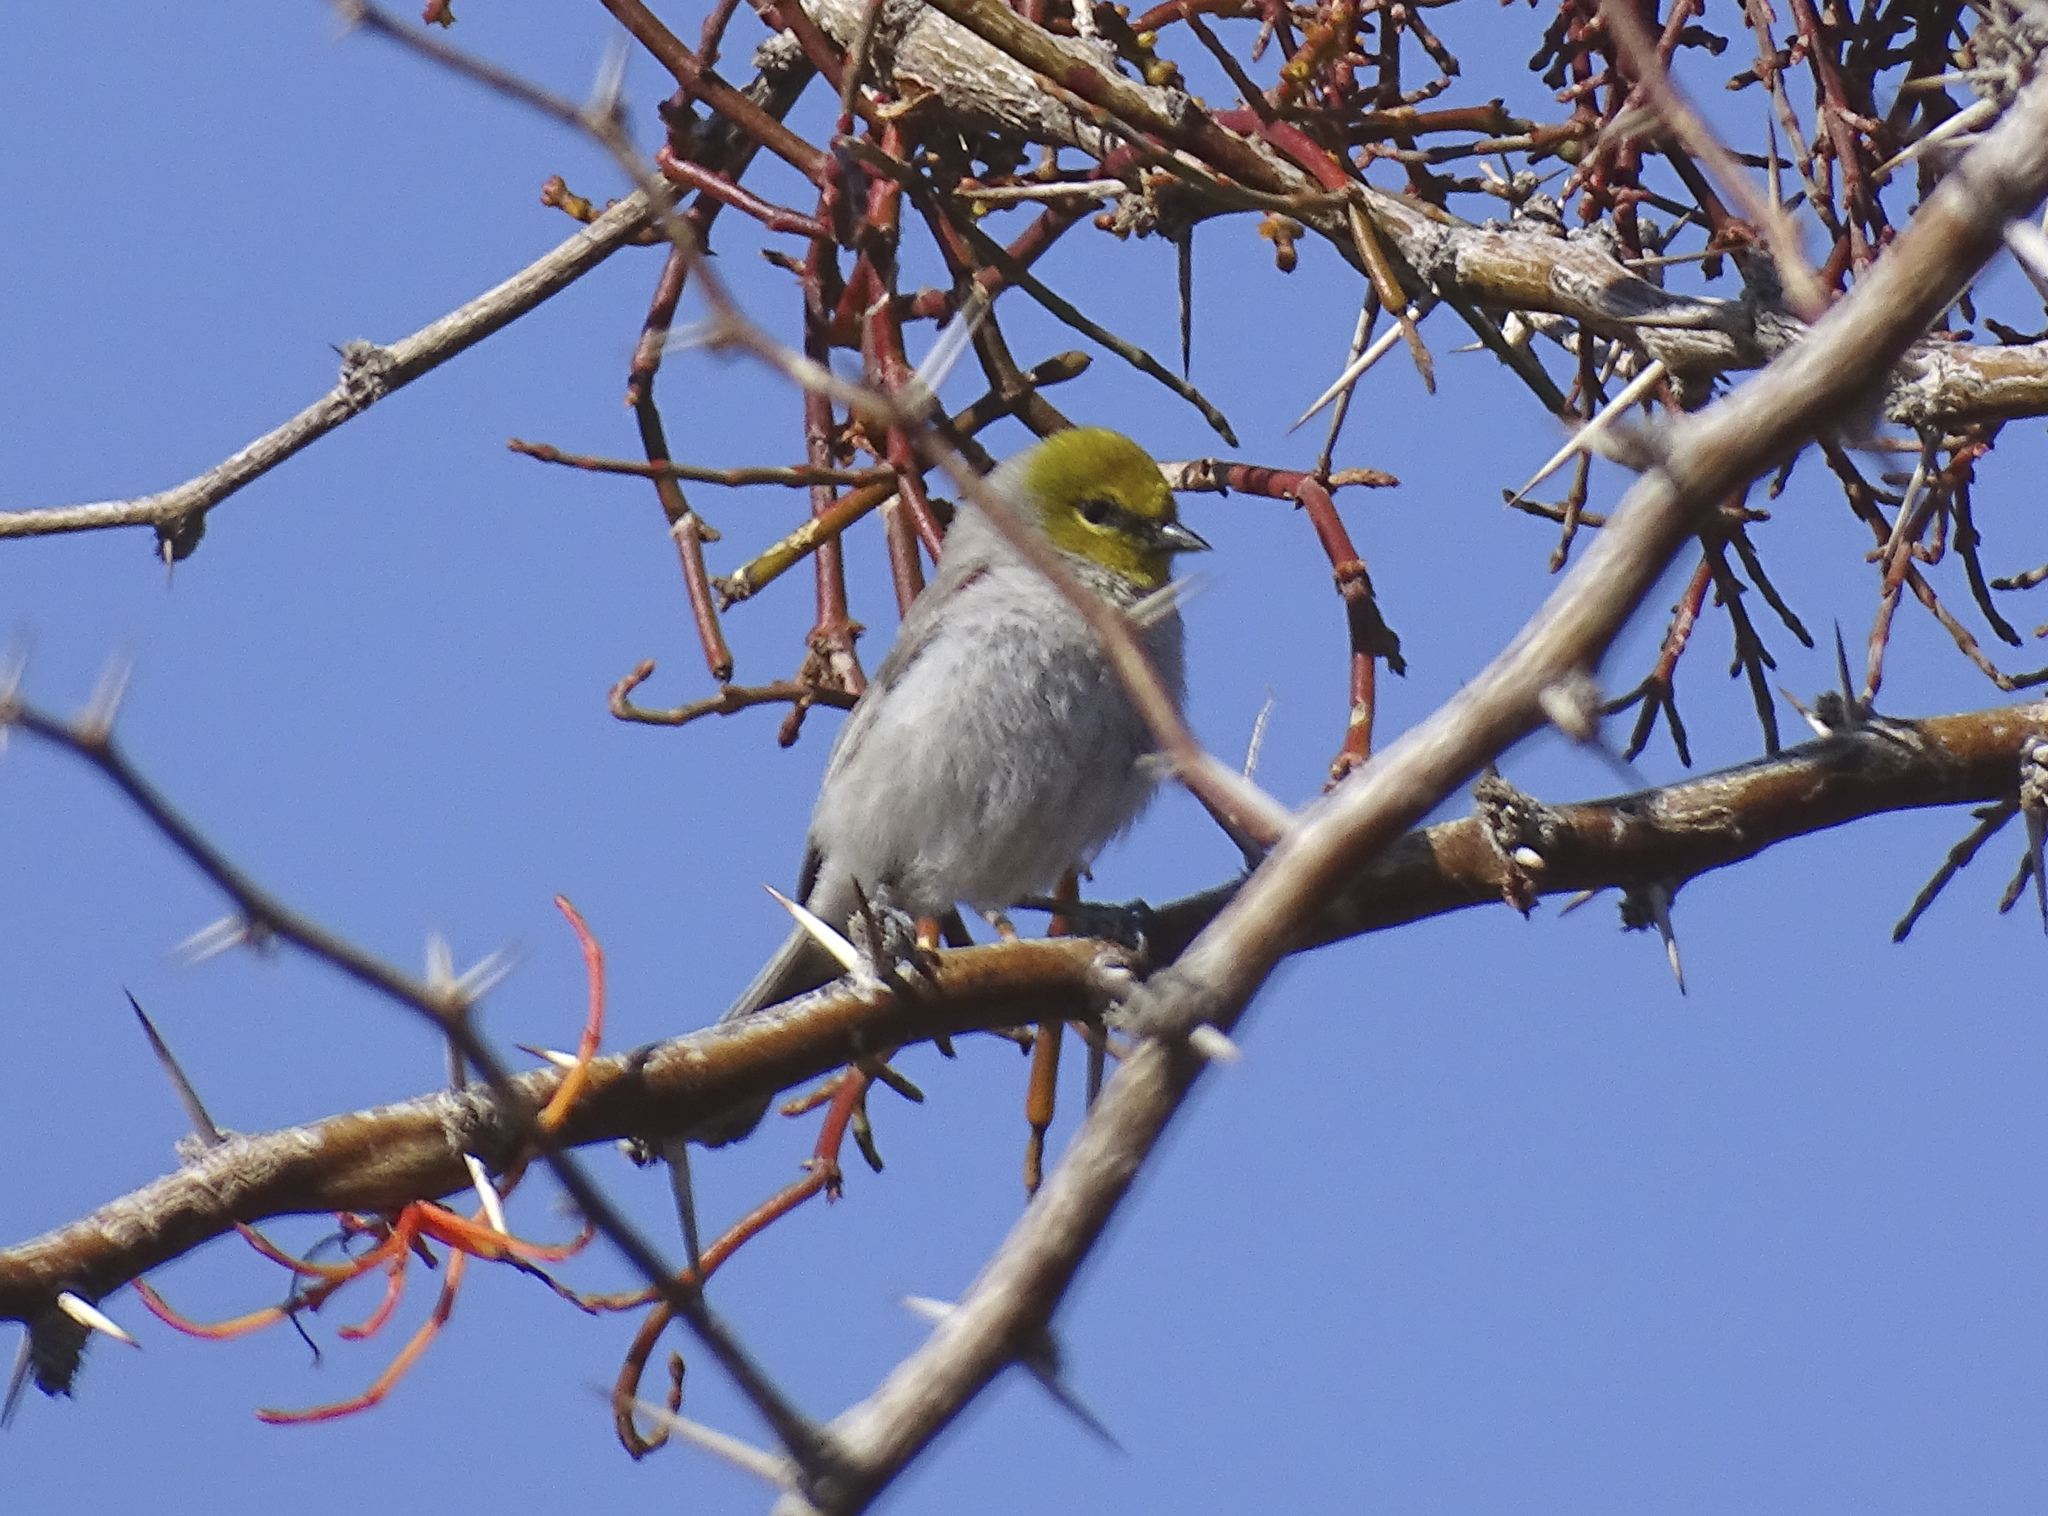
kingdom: Animalia
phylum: Chordata
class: Aves
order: Passeriformes
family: Remizidae
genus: Auriparus
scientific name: Auriparus flaviceps
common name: Verdin
